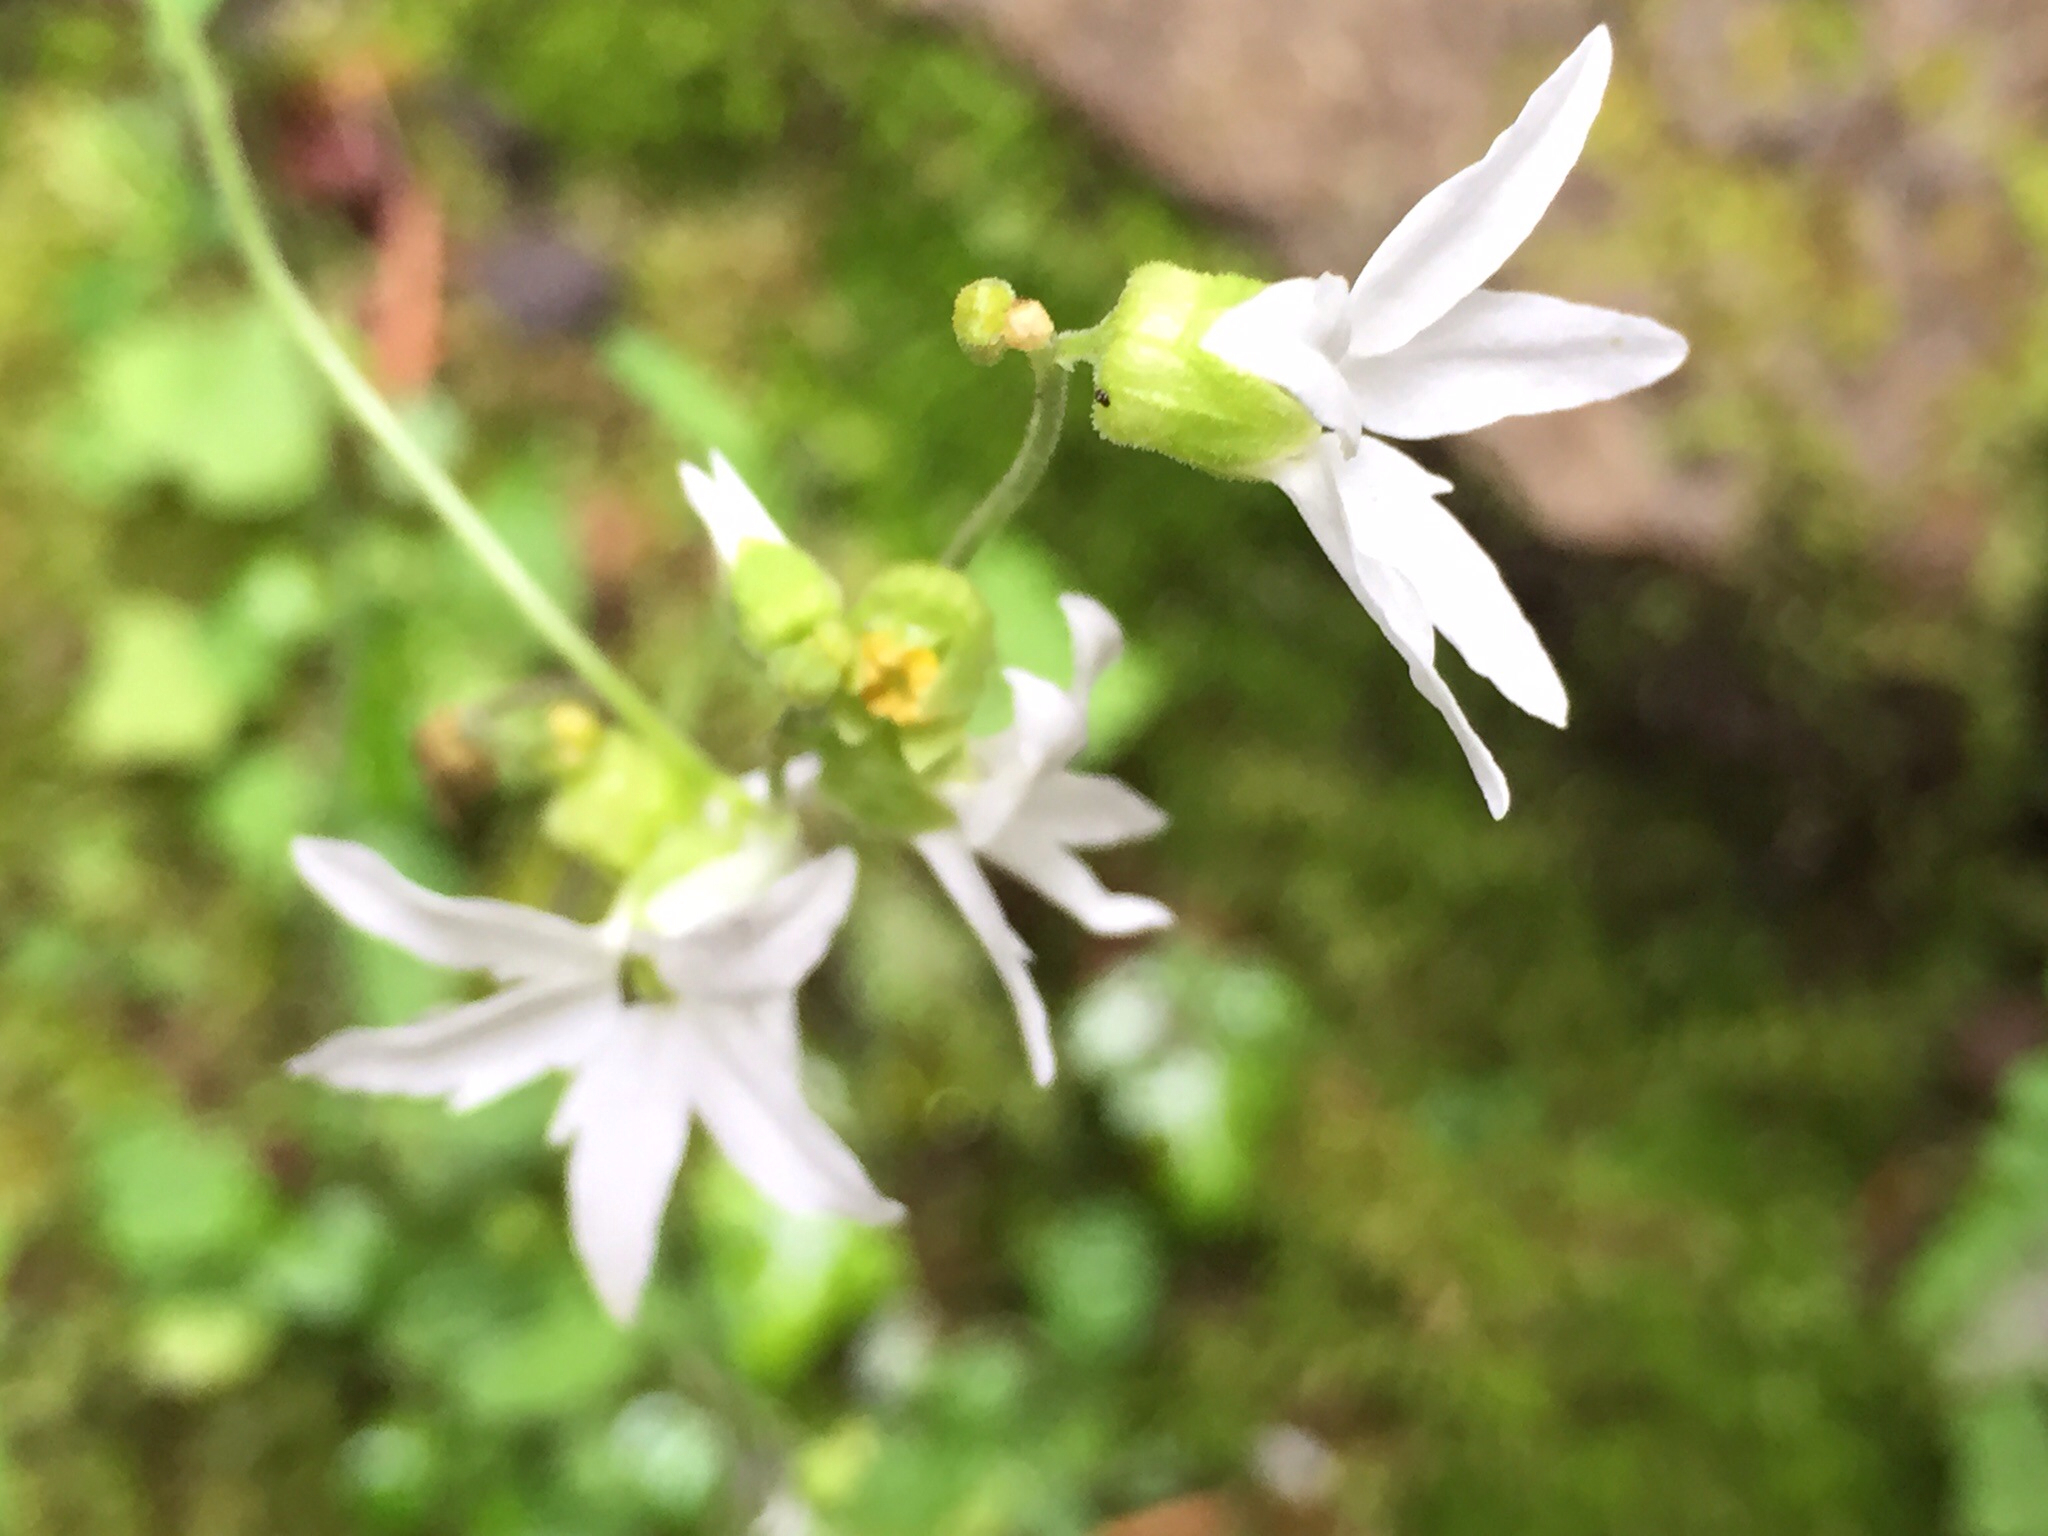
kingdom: Plantae
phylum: Tracheophyta
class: Magnoliopsida
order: Saxifragales
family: Saxifragaceae
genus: Lithophragma
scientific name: Lithophragma heterophyllum
